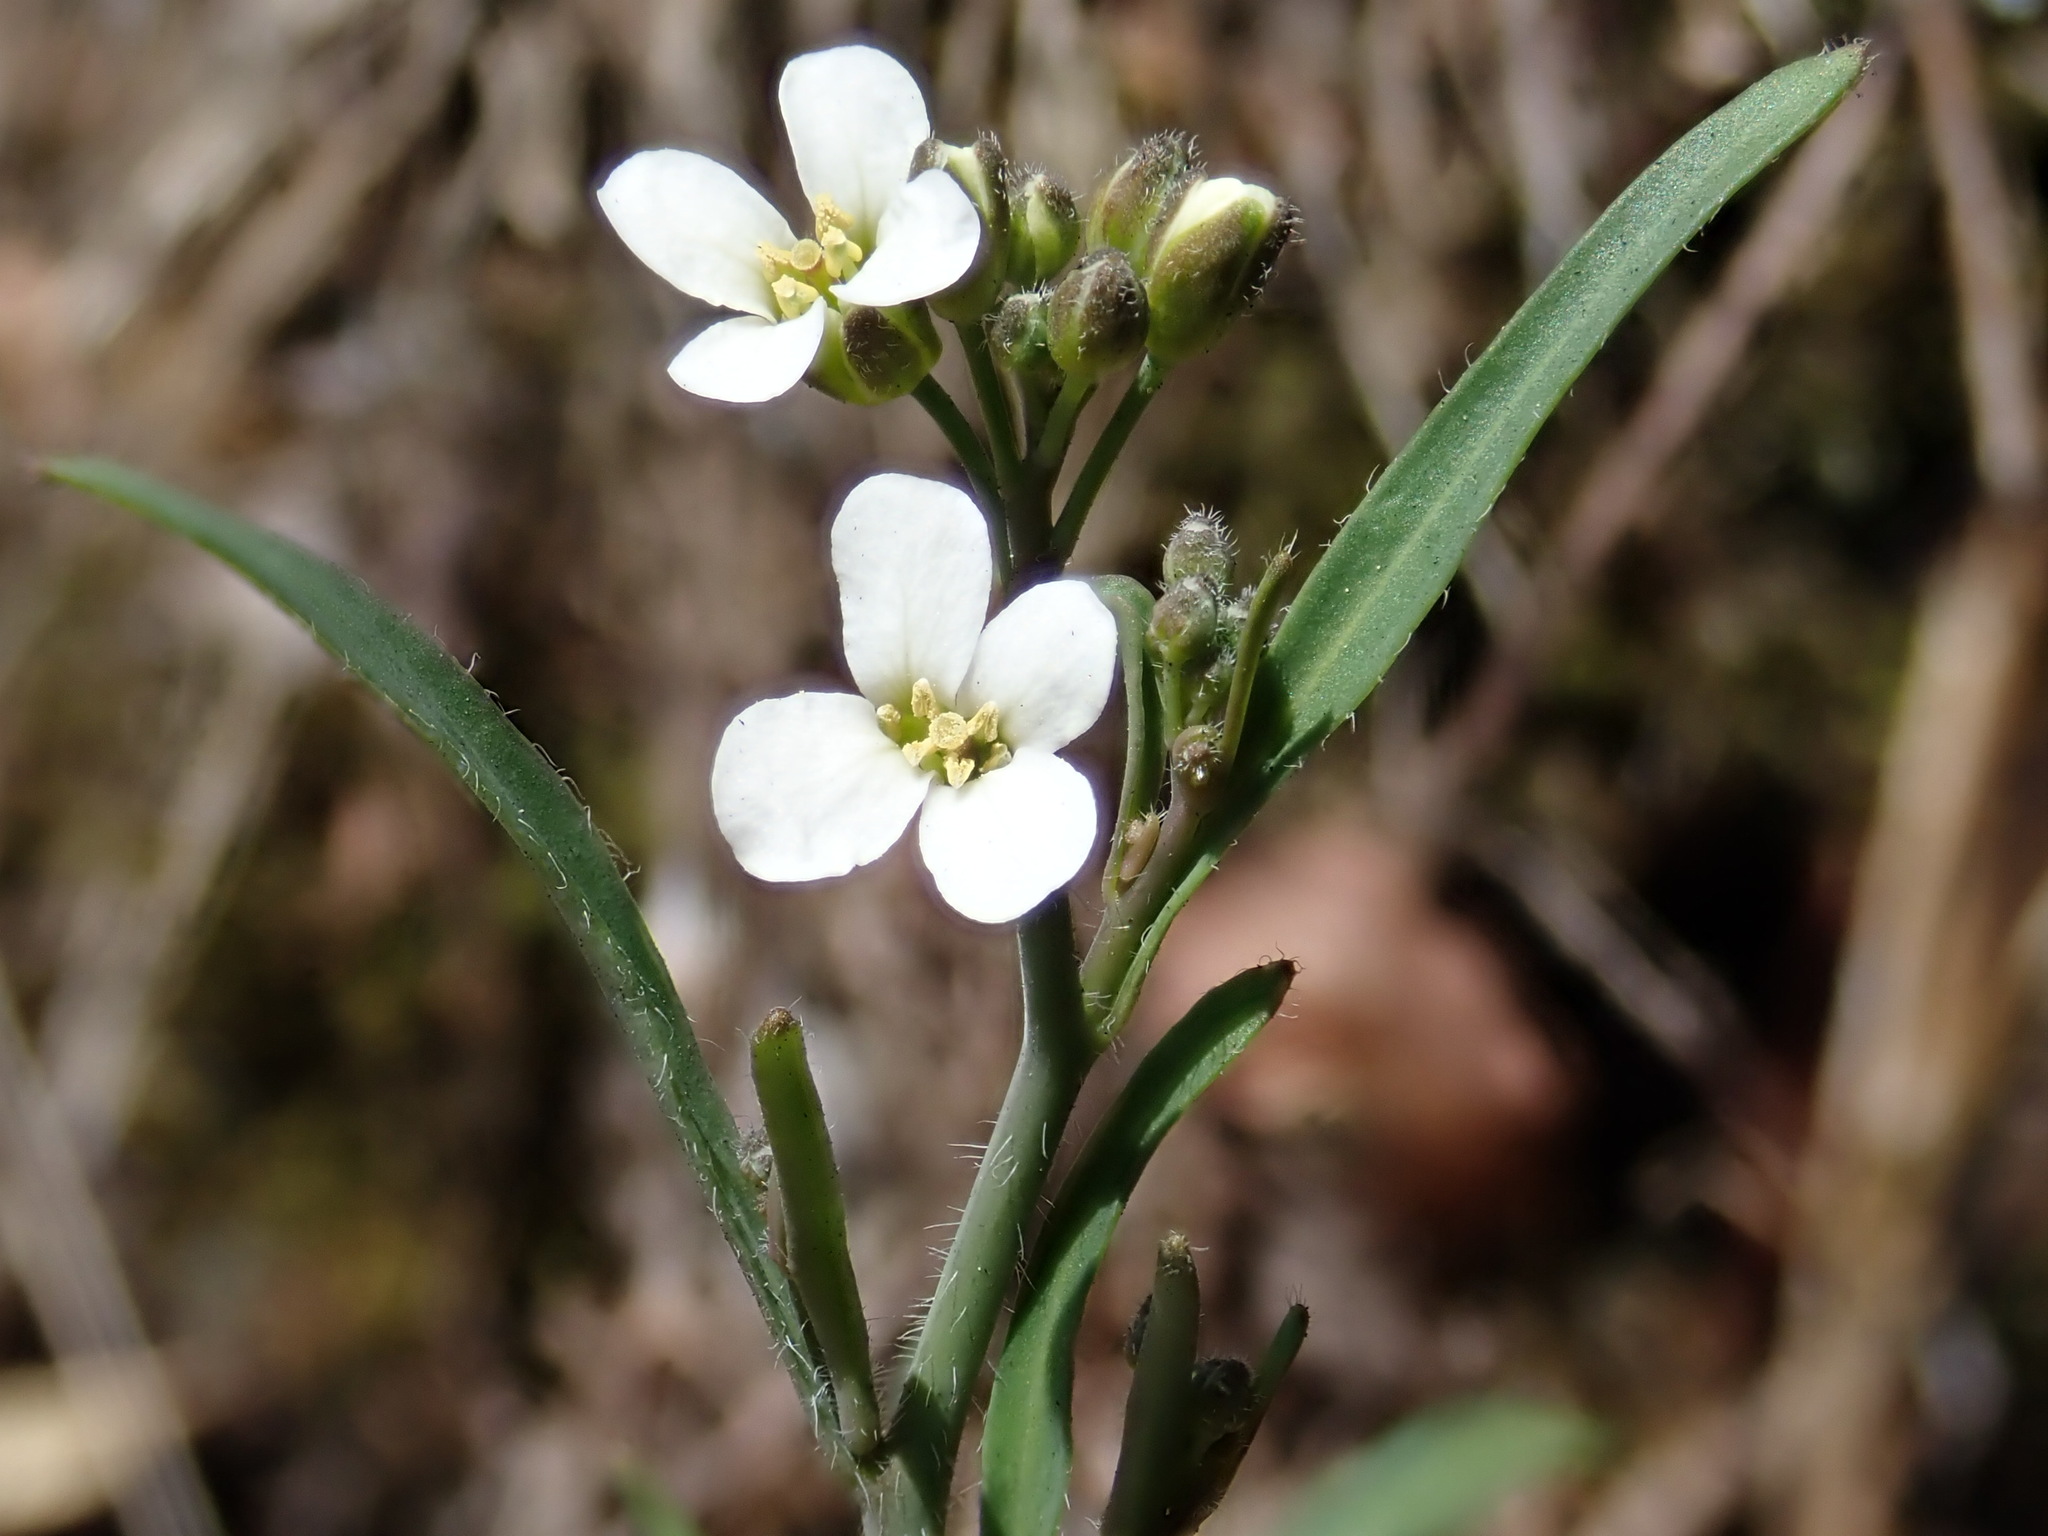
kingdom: Plantae
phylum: Tracheophyta
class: Magnoliopsida
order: Brassicales
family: Brassicaceae
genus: Arabidopsis
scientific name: Arabidopsis lyrata
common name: Lyrate rockcress
